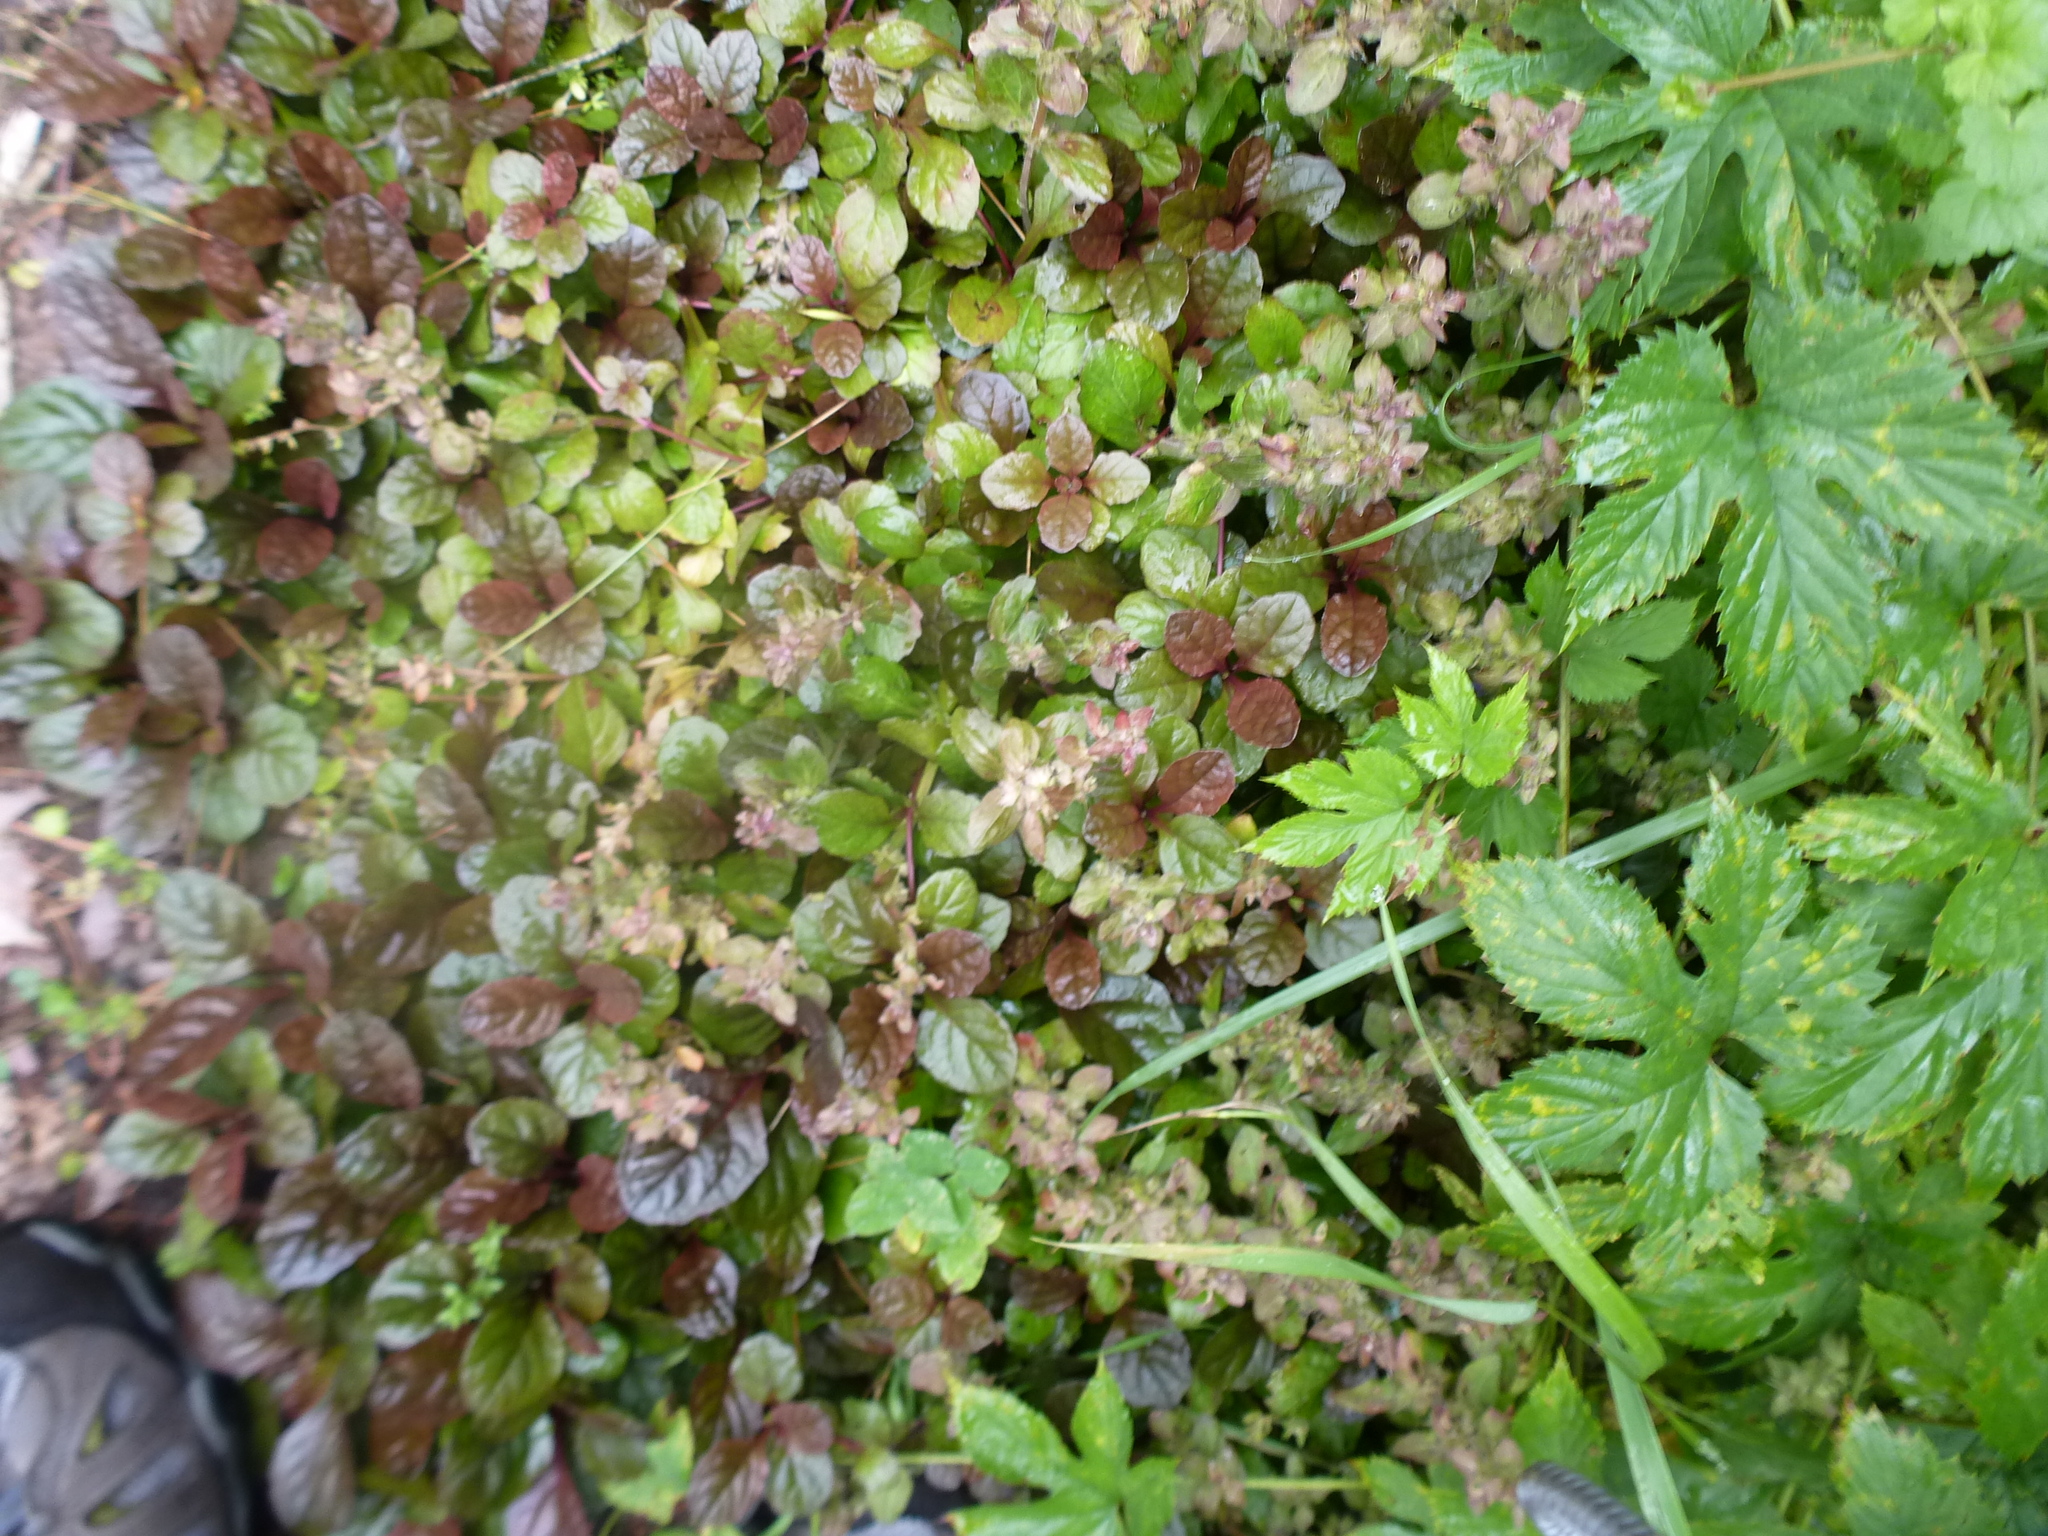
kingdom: Plantae
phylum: Tracheophyta
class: Magnoliopsida
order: Lamiales
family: Lamiaceae
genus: Ajuga
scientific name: Ajuga reptans
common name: Bugle
